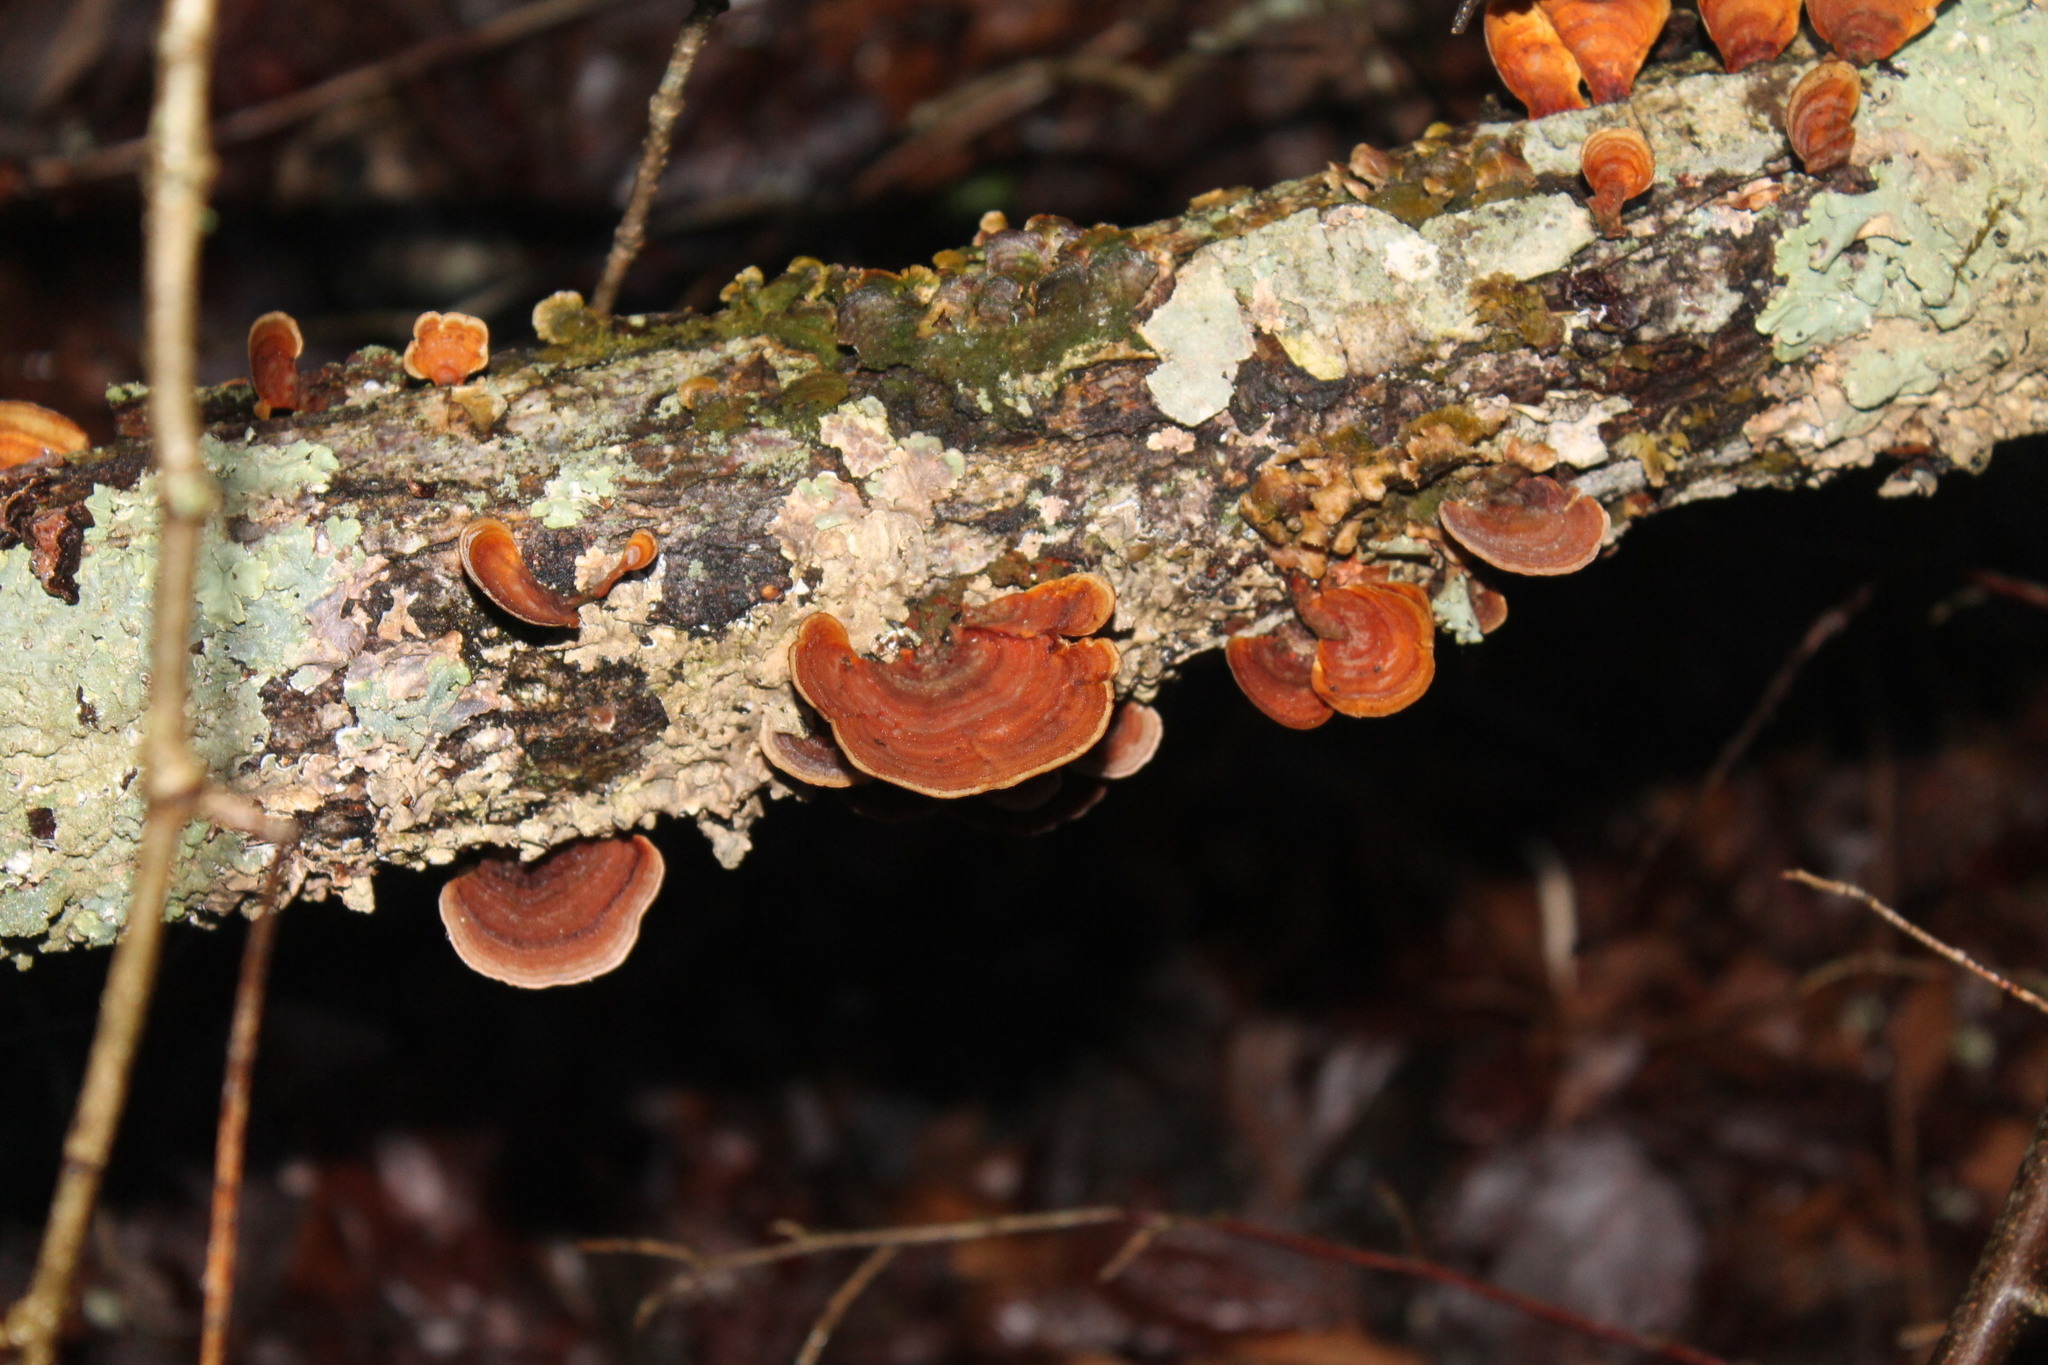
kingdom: Fungi
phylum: Basidiomycota
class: Agaricomycetes
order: Russulales
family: Stereaceae
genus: Stereum
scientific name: Stereum lobatum
